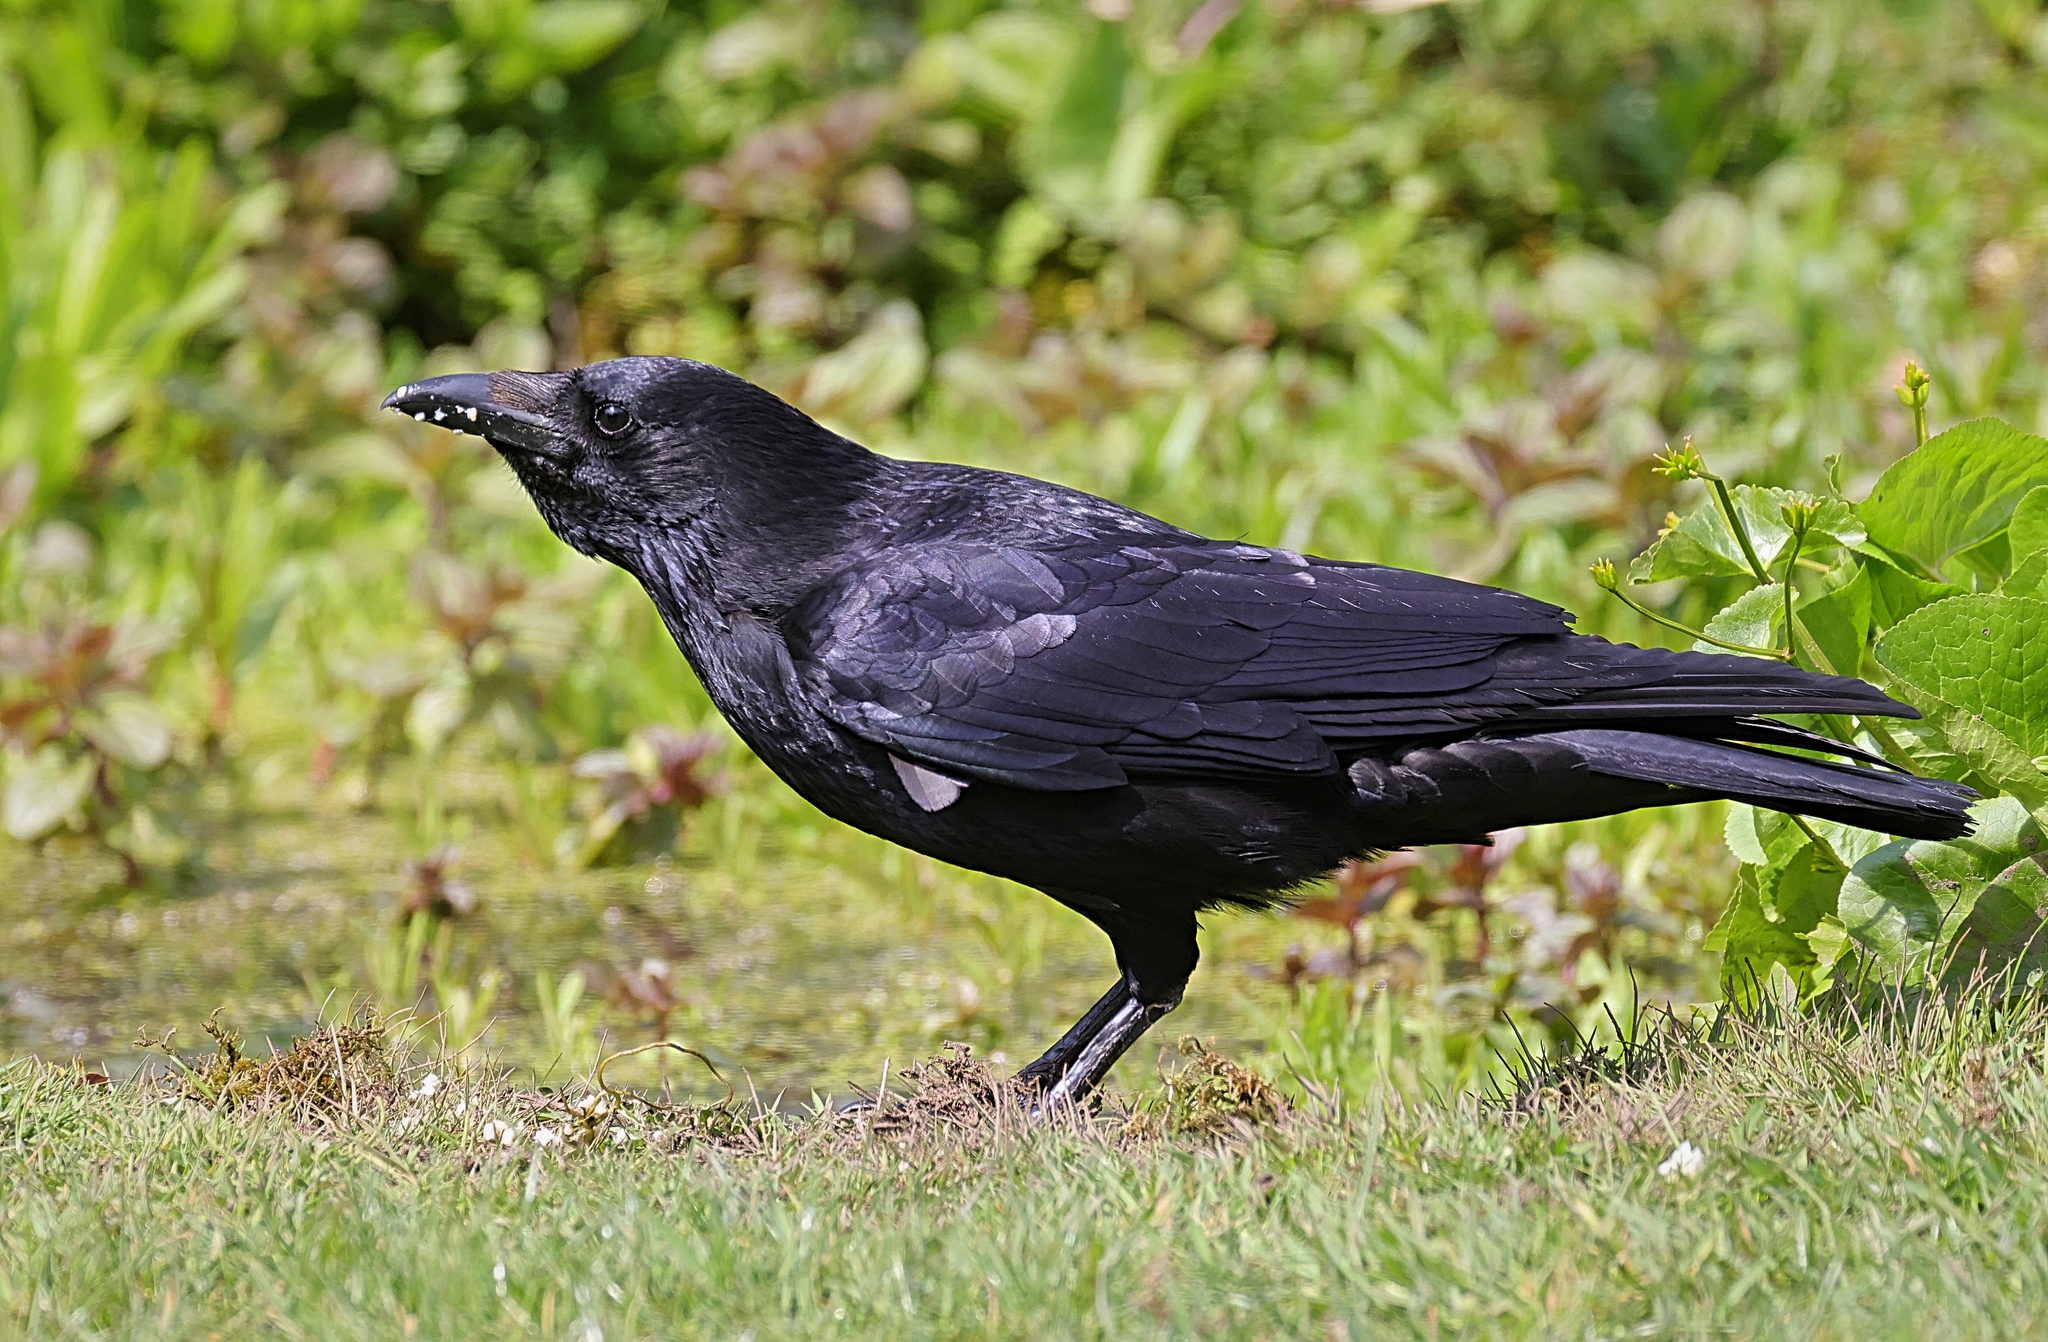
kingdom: Animalia
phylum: Chordata
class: Aves
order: Passeriformes
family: Corvidae
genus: Corvus
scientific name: Corvus corone
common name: Carrion crow
